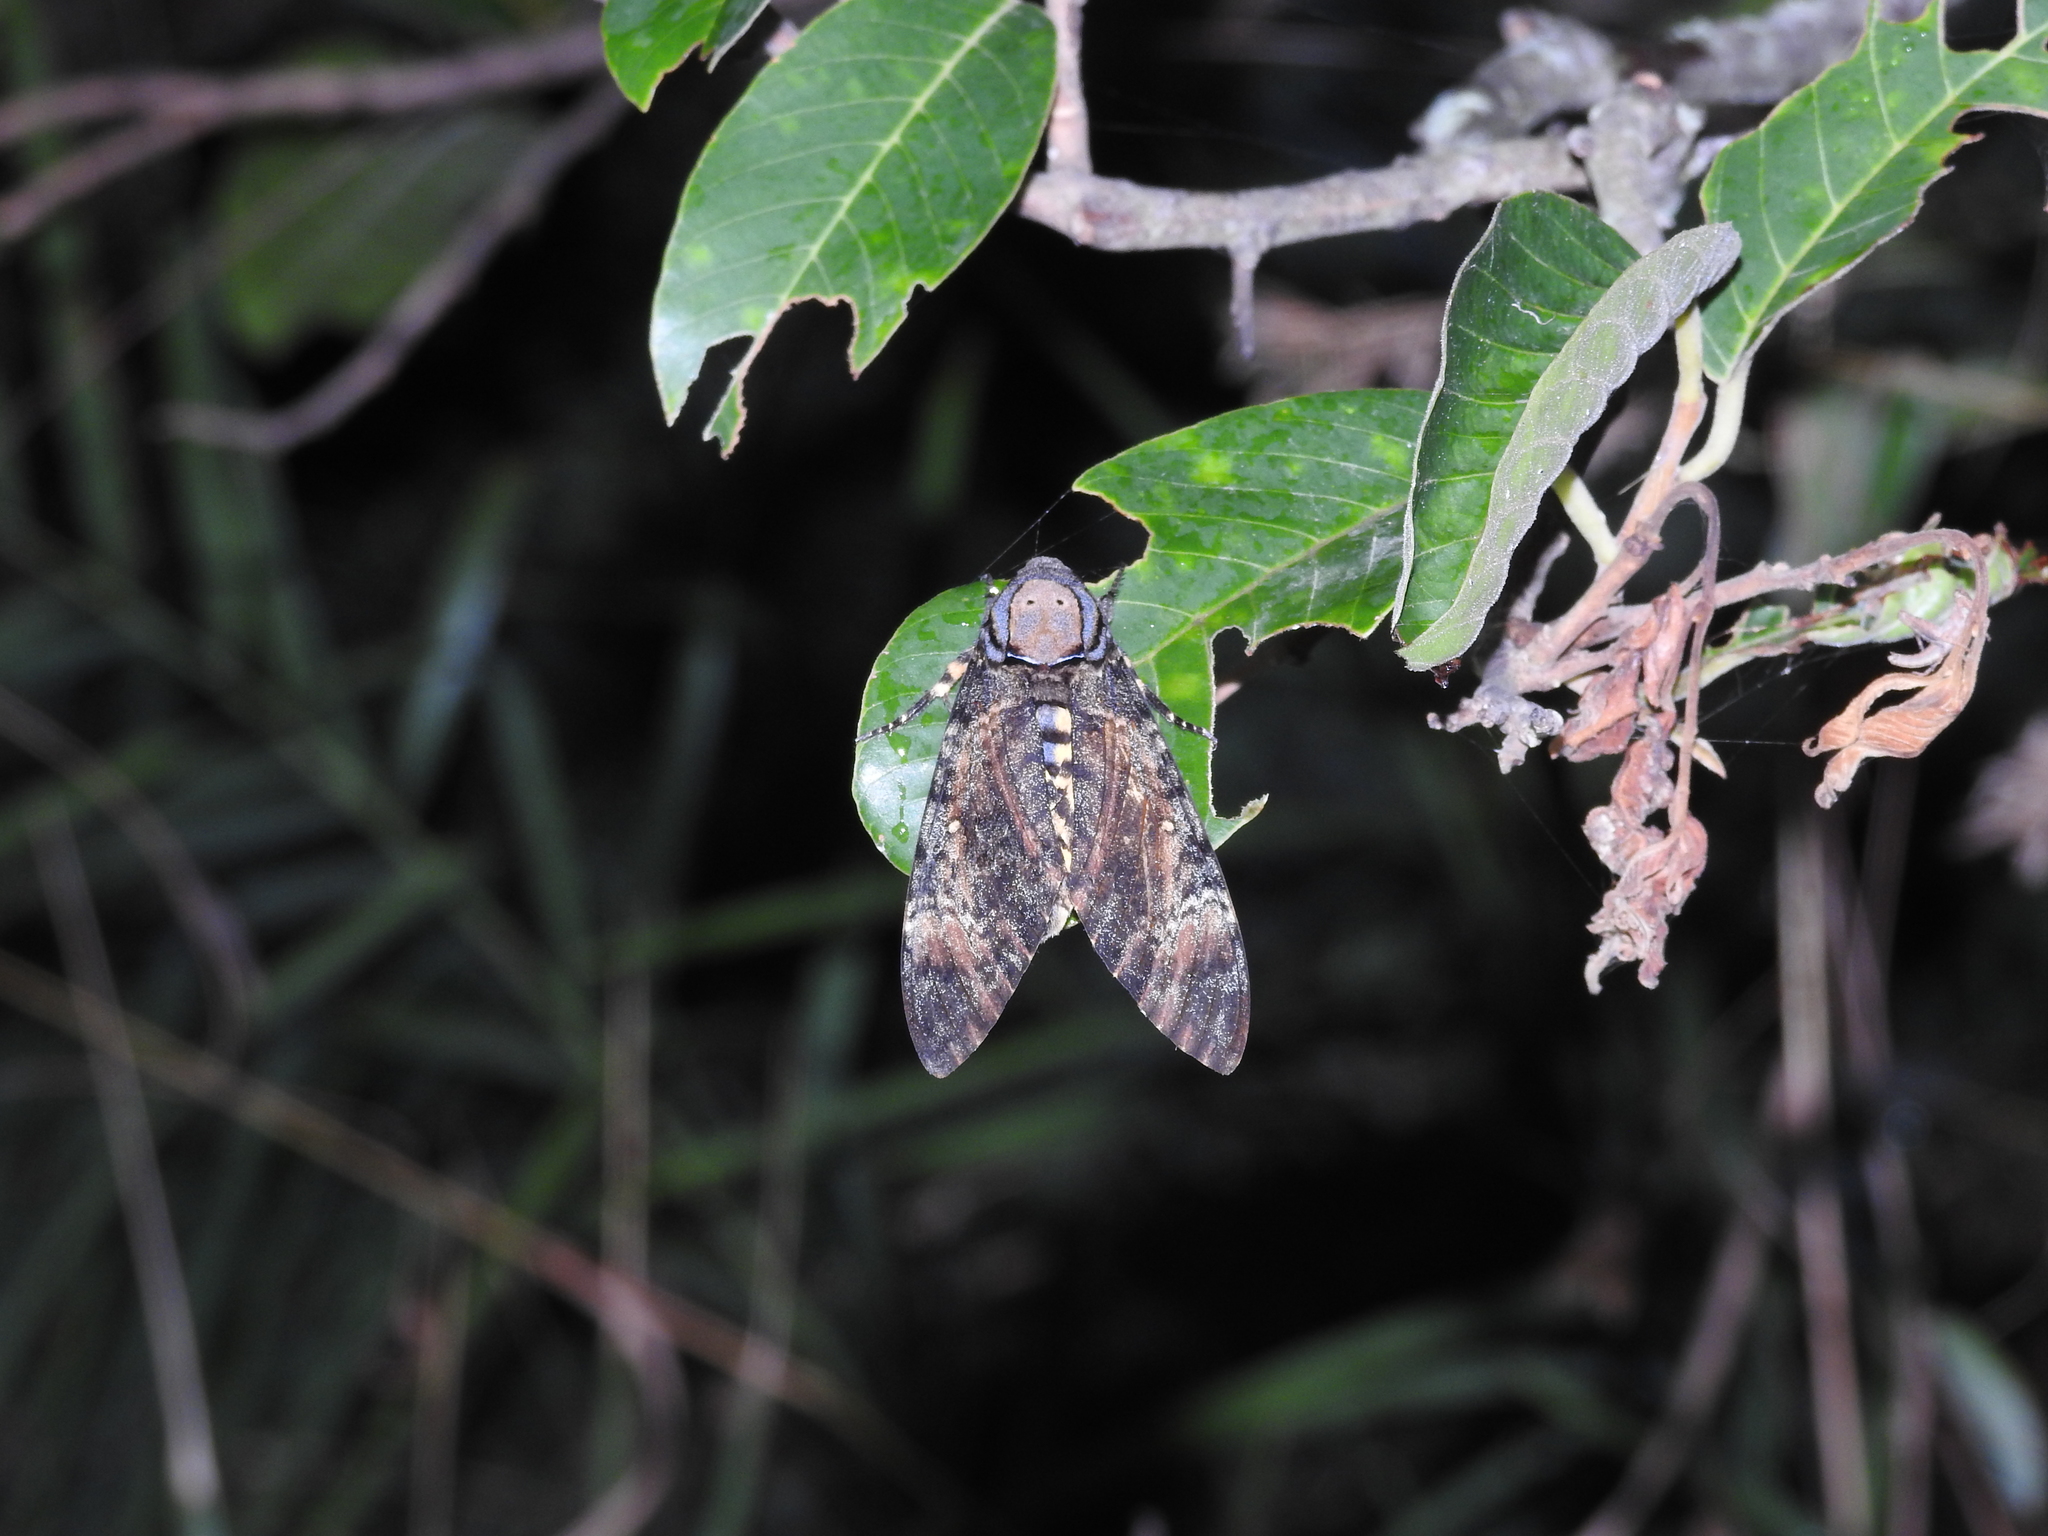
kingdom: Animalia
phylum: Arthropoda
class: Insecta
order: Lepidoptera
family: Sphingidae
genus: Acherontia
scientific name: Acherontia styx
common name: Death's-head hawk moth
